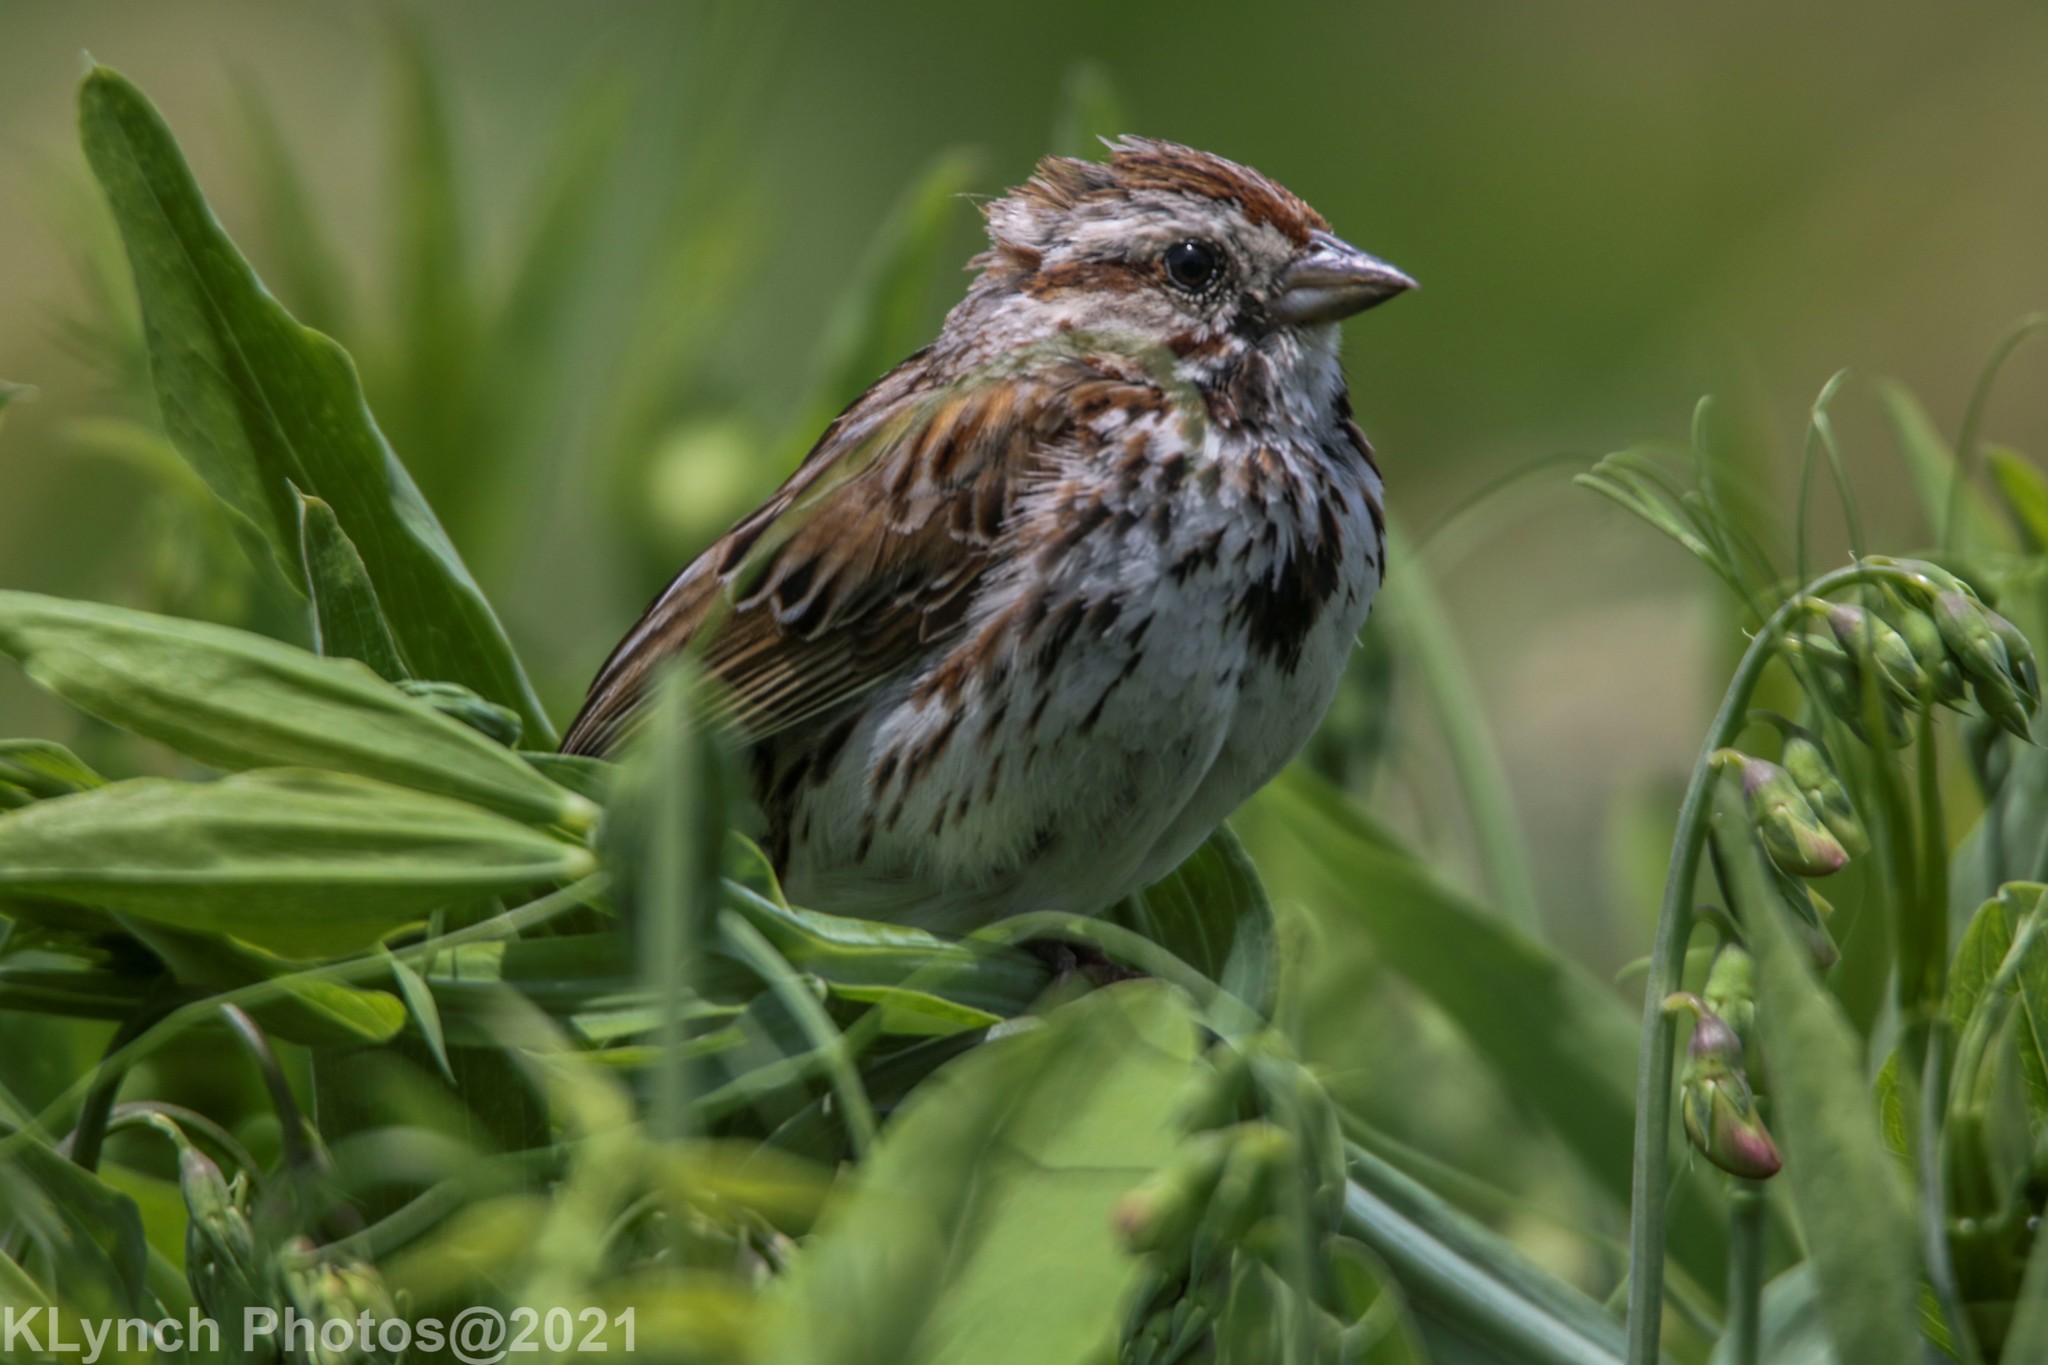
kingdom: Animalia
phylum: Chordata
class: Aves
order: Passeriformes
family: Passerellidae
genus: Melospiza
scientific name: Melospiza melodia
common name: Song sparrow
